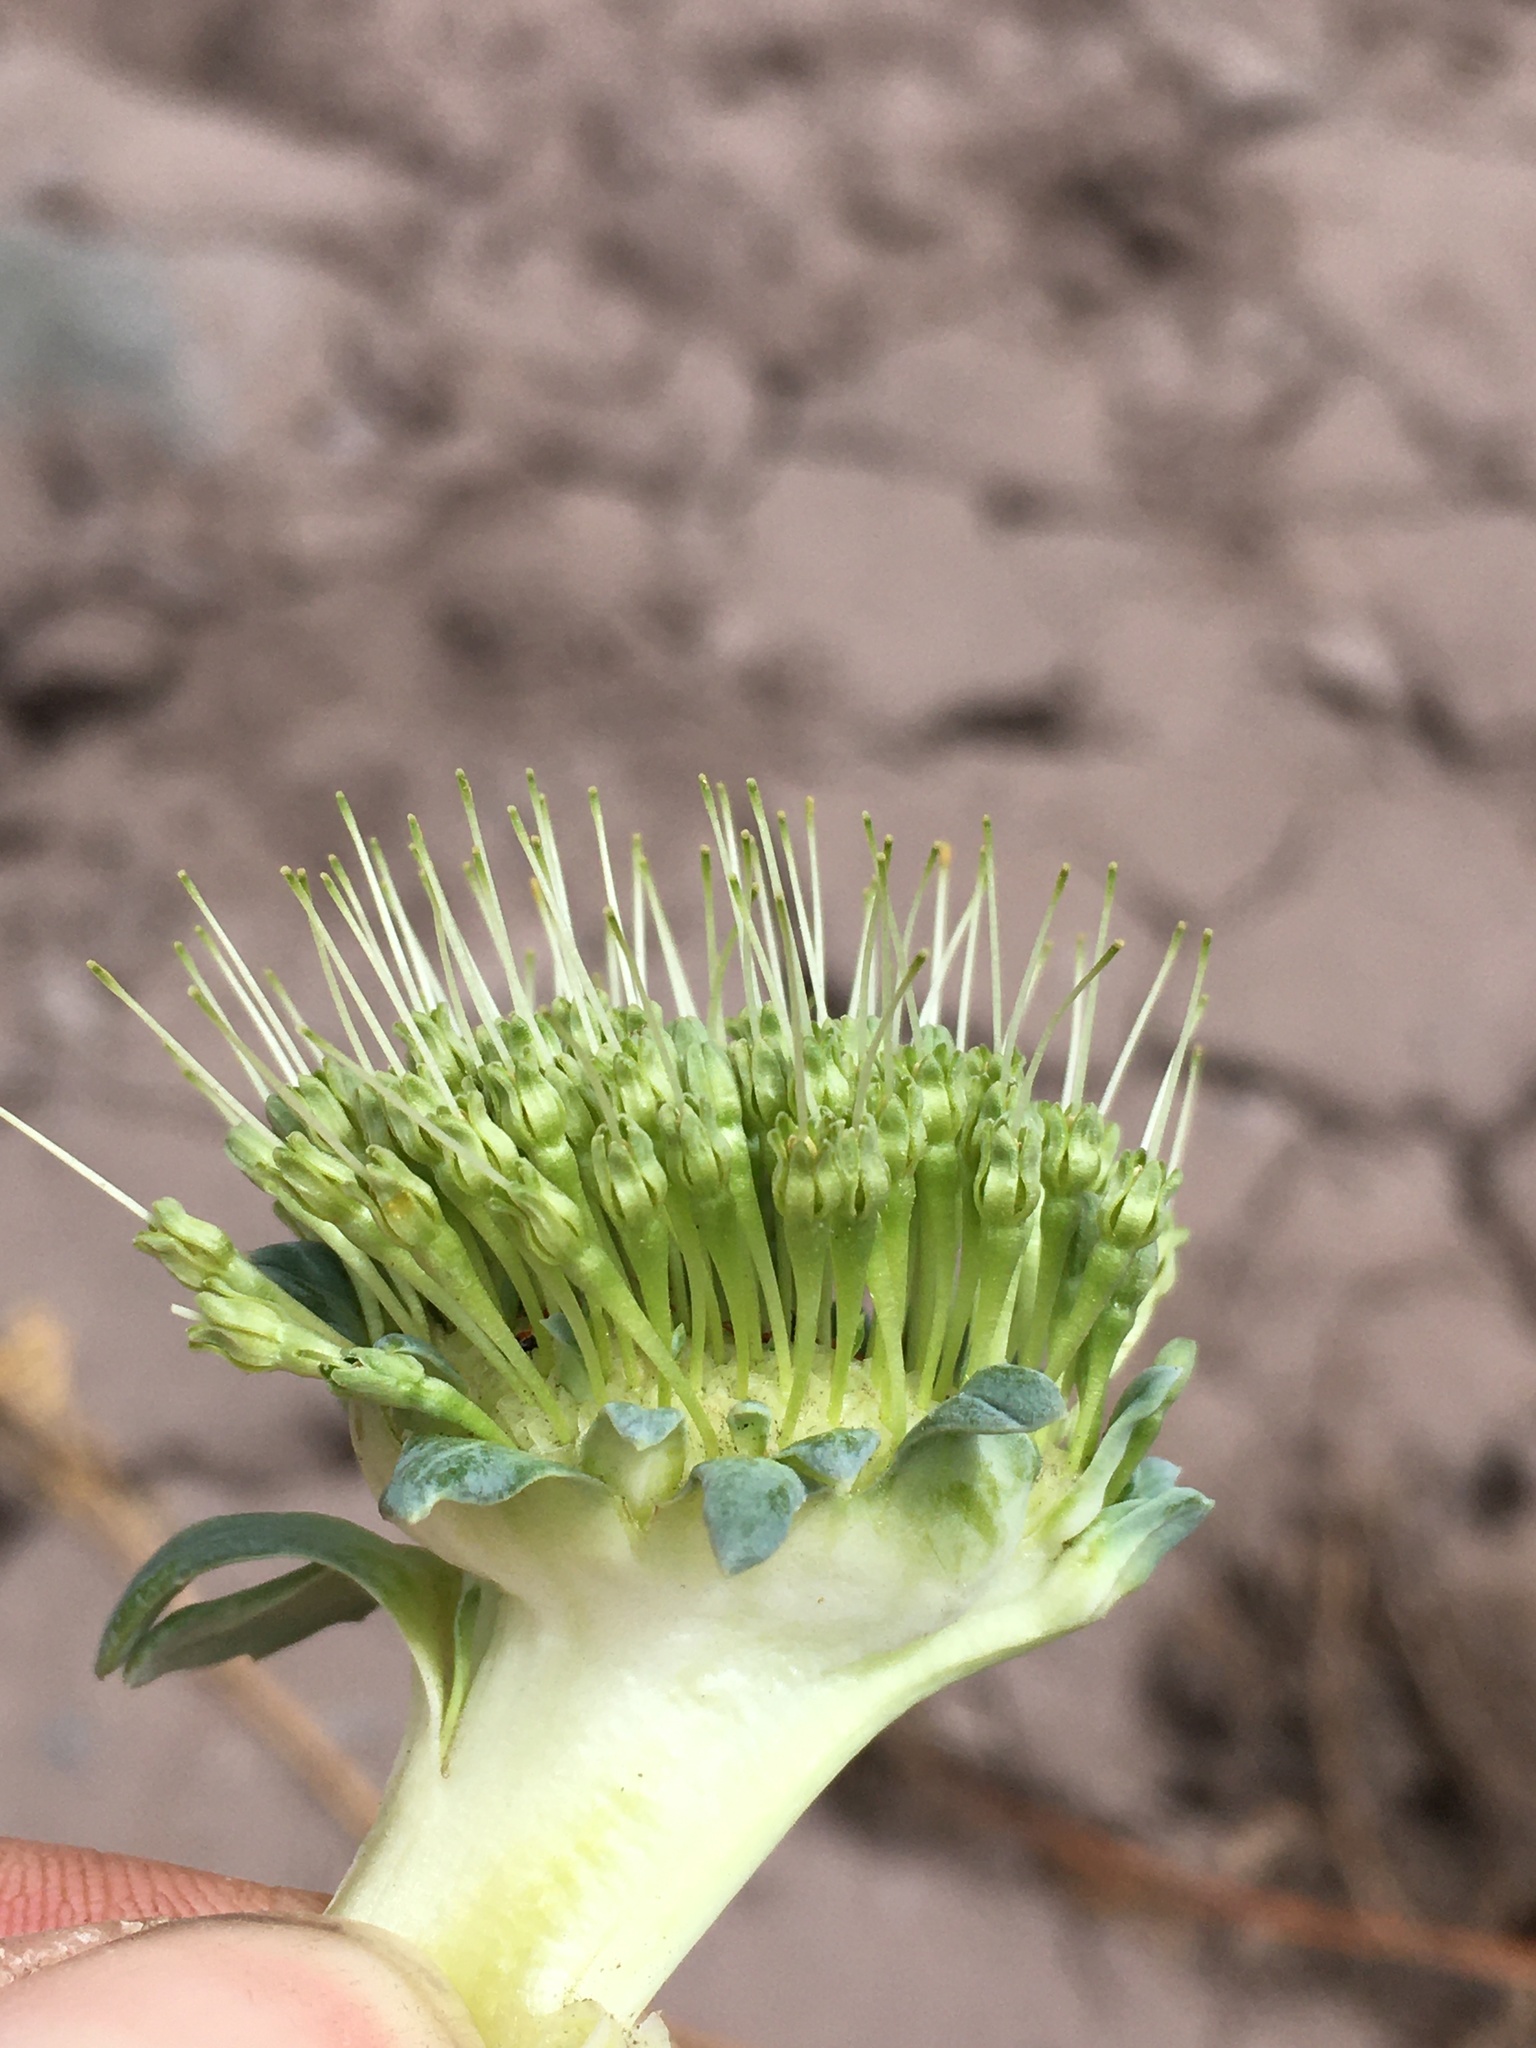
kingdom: Plantae
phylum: Tracheophyta
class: Magnoliopsida
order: Asterales
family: Calyceraceae
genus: Gamocarpha
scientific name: Gamocarpha scapigera
